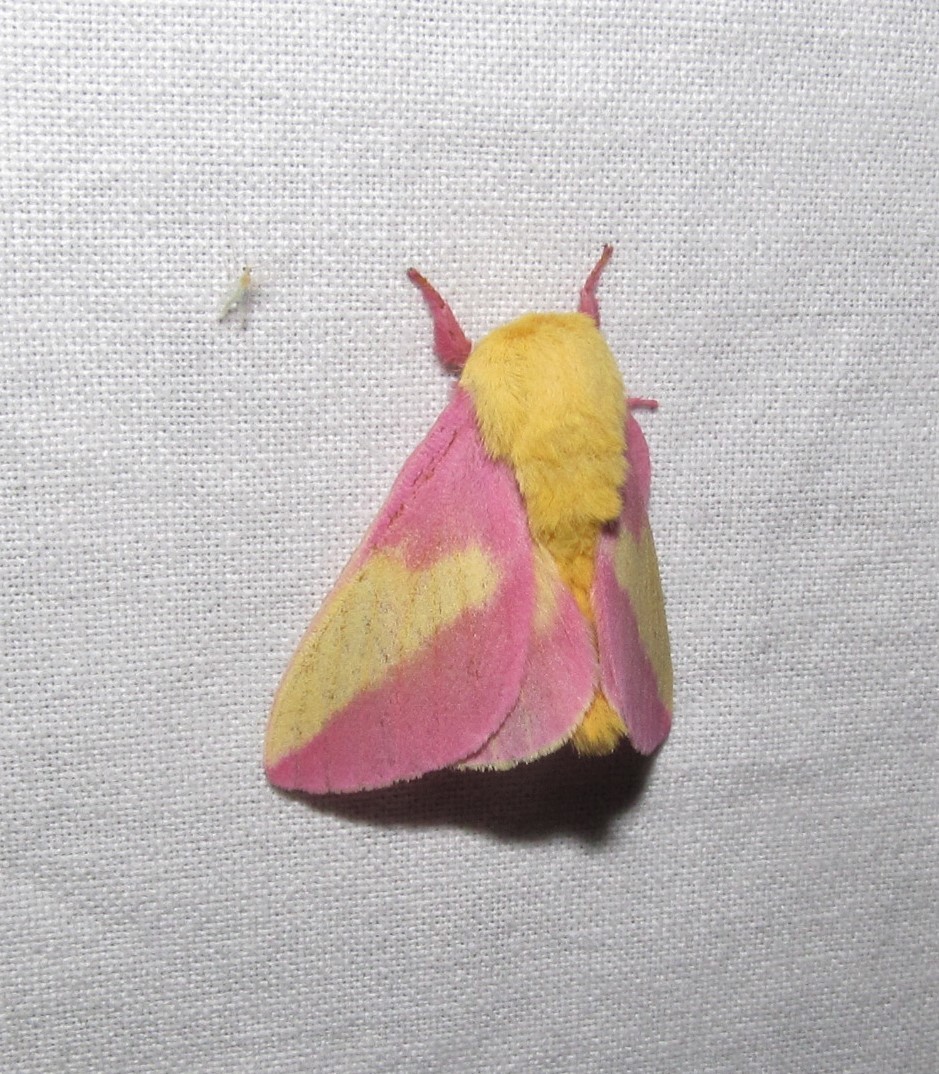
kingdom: Animalia
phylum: Arthropoda
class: Insecta
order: Lepidoptera
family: Saturniidae
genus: Dryocampa
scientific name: Dryocampa rubicunda
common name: Rosy maple moth
